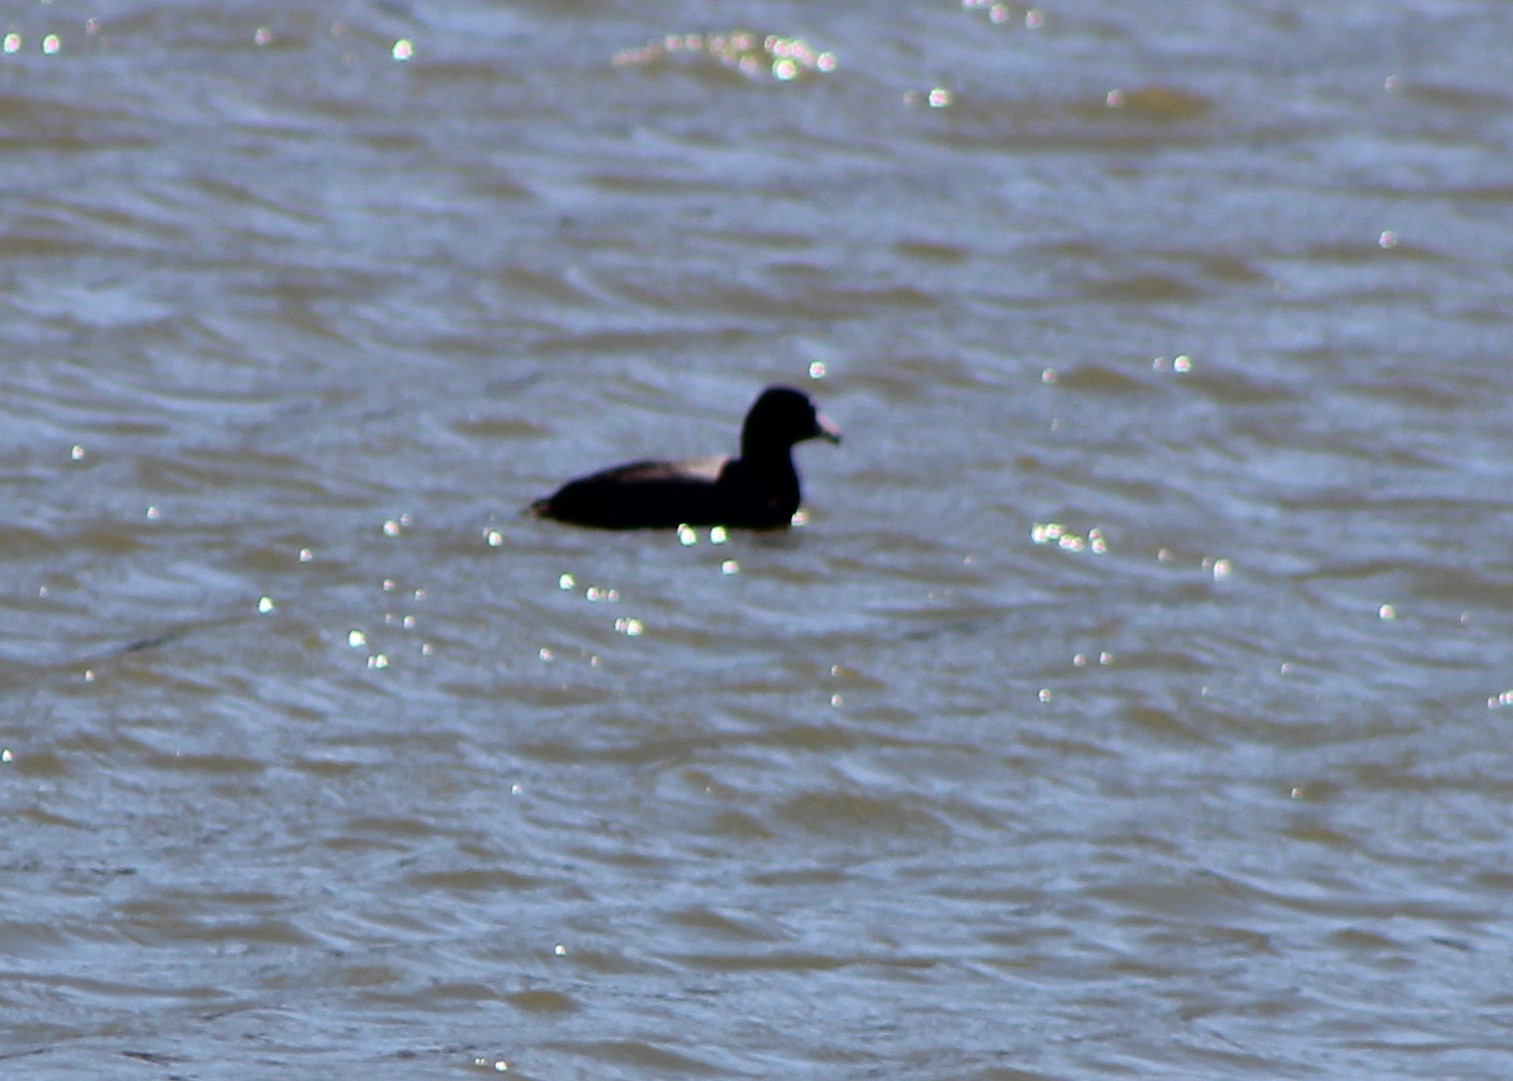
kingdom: Animalia
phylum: Chordata
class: Aves
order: Gruiformes
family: Rallidae
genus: Fulica
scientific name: Fulica americana
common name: American coot
